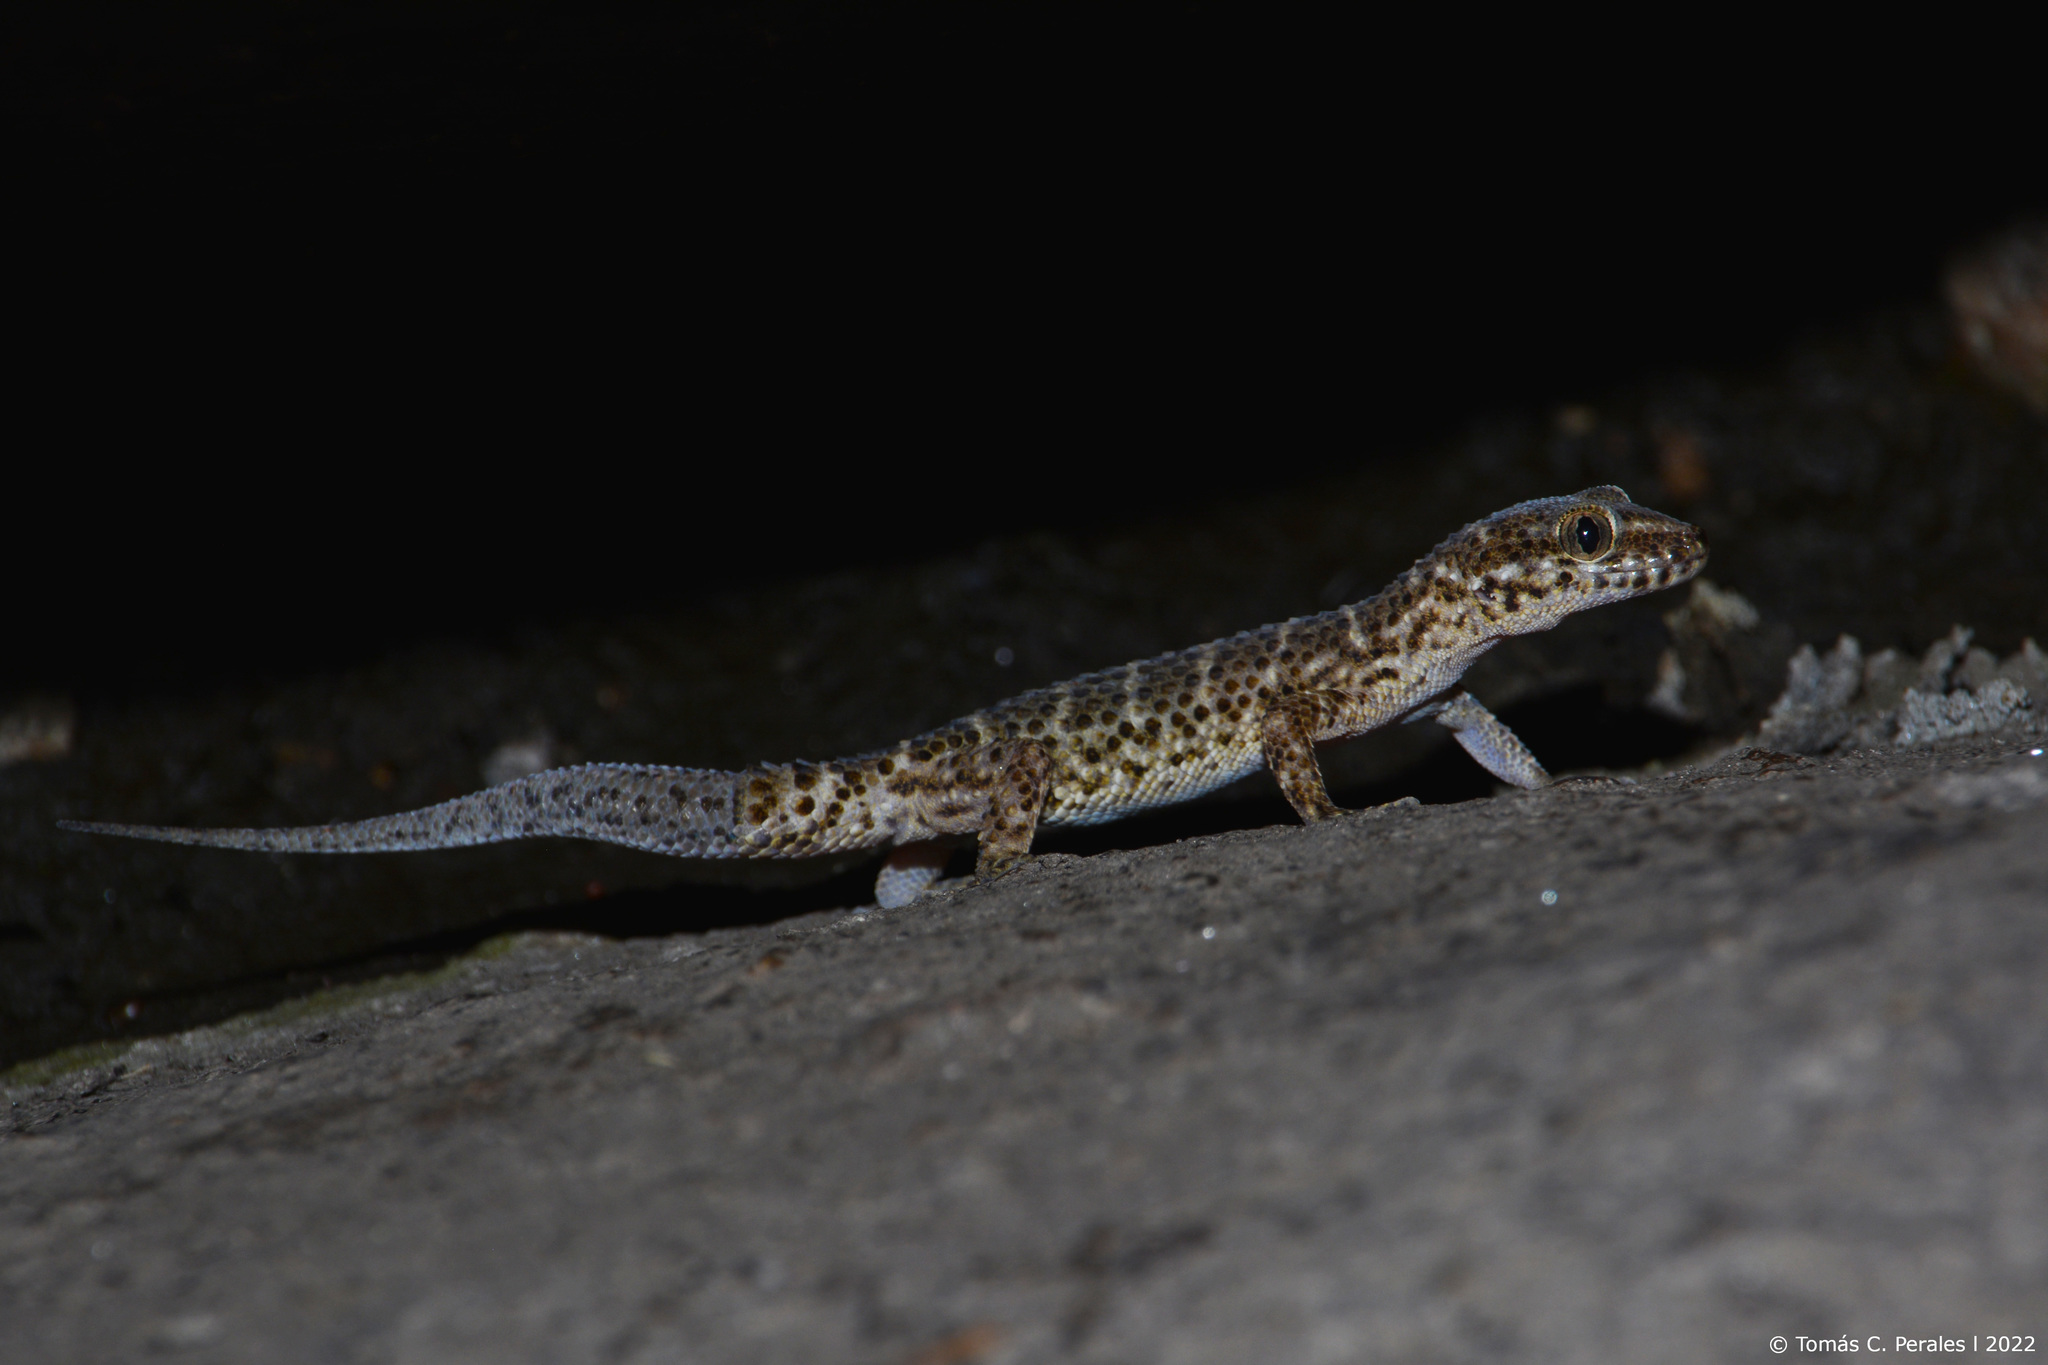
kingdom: Animalia
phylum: Chordata
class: Squamata
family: Phyllodactylidae
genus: Homonota
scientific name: Homonota horrida
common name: South american marked gecko
